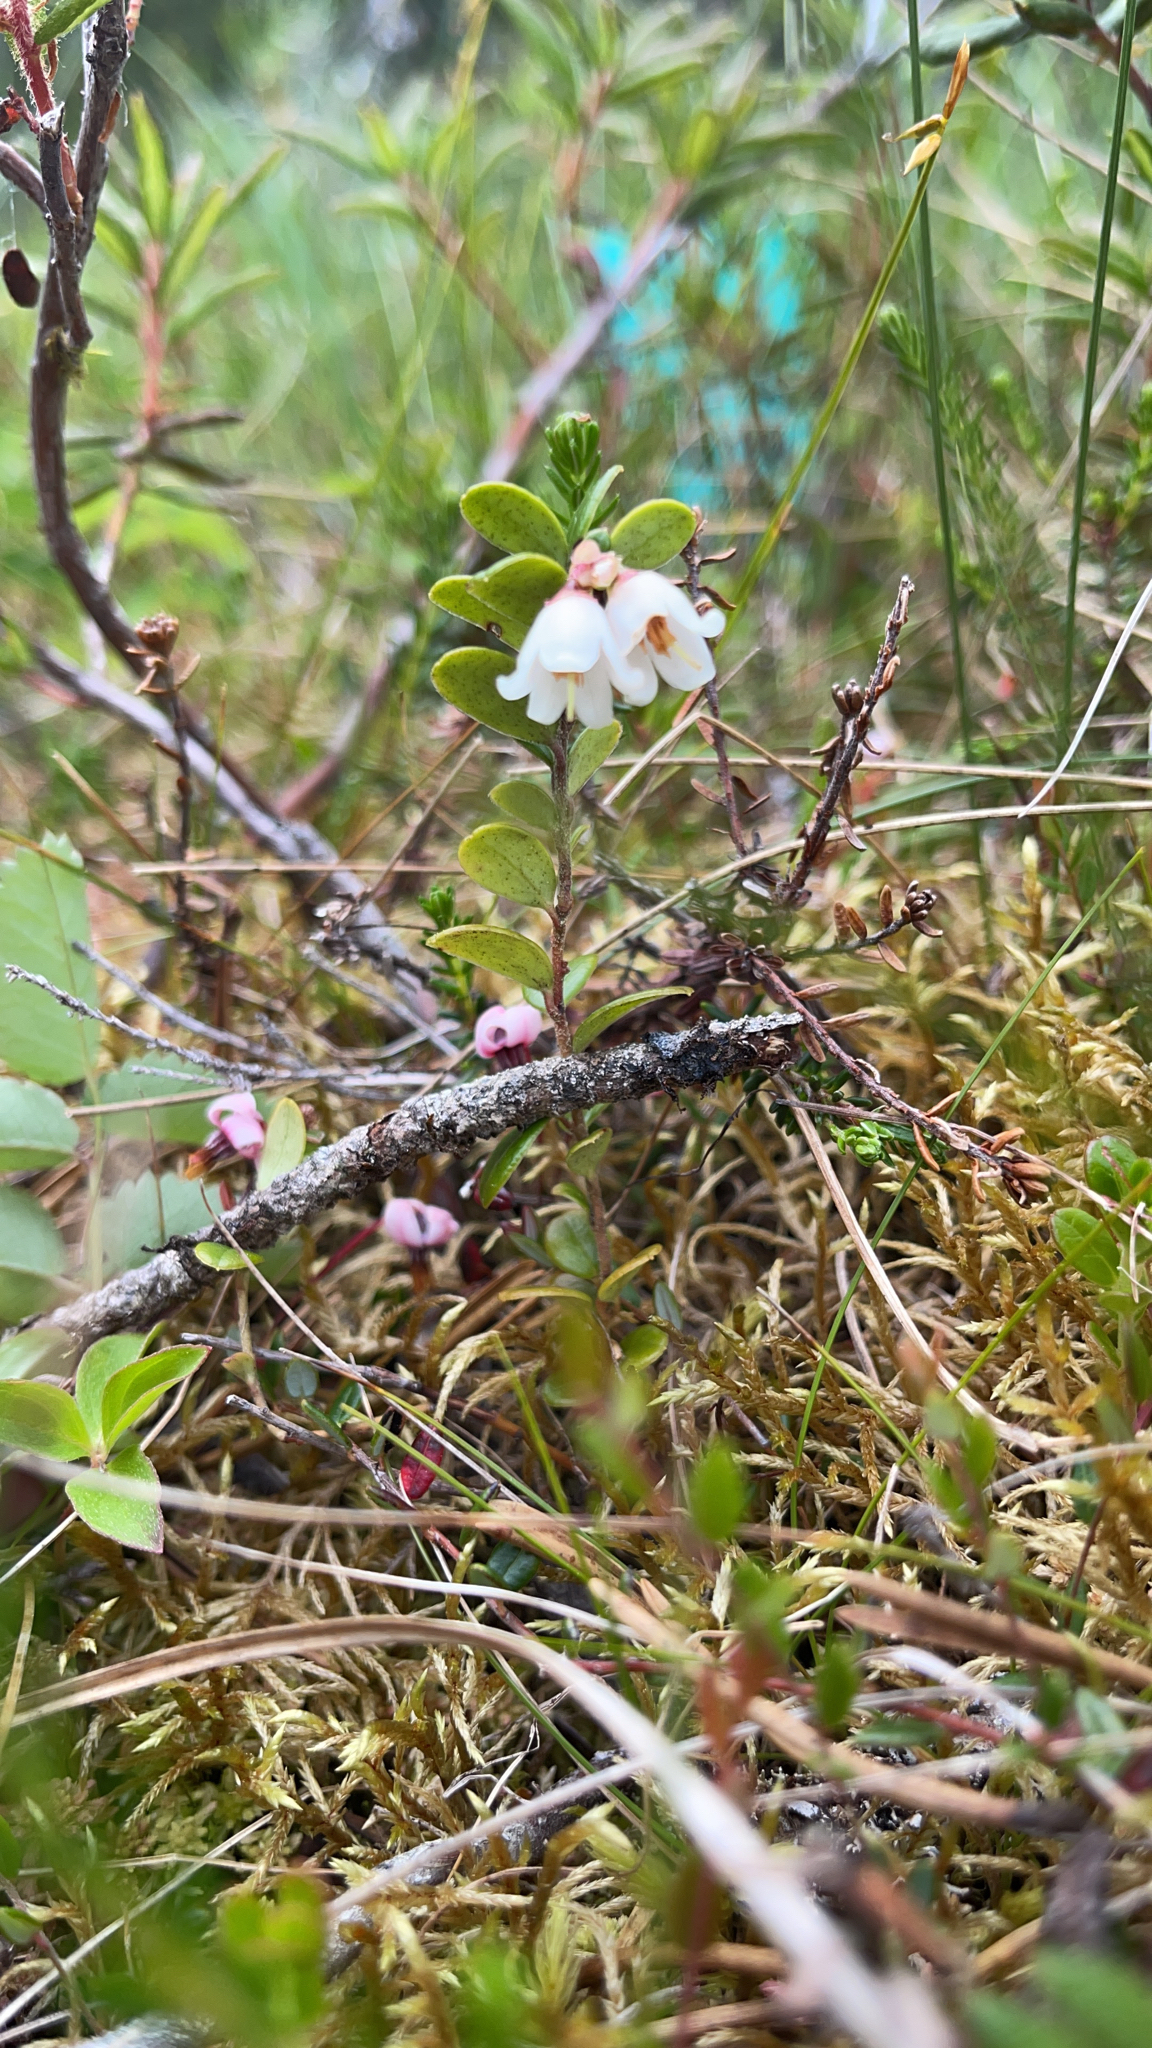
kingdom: Plantae
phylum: Tracheophyta
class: Magnoliopsida
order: Ericales
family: Ericaceae
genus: Vaccinium
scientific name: Vaccinium vitis-idaea
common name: Cowberry
